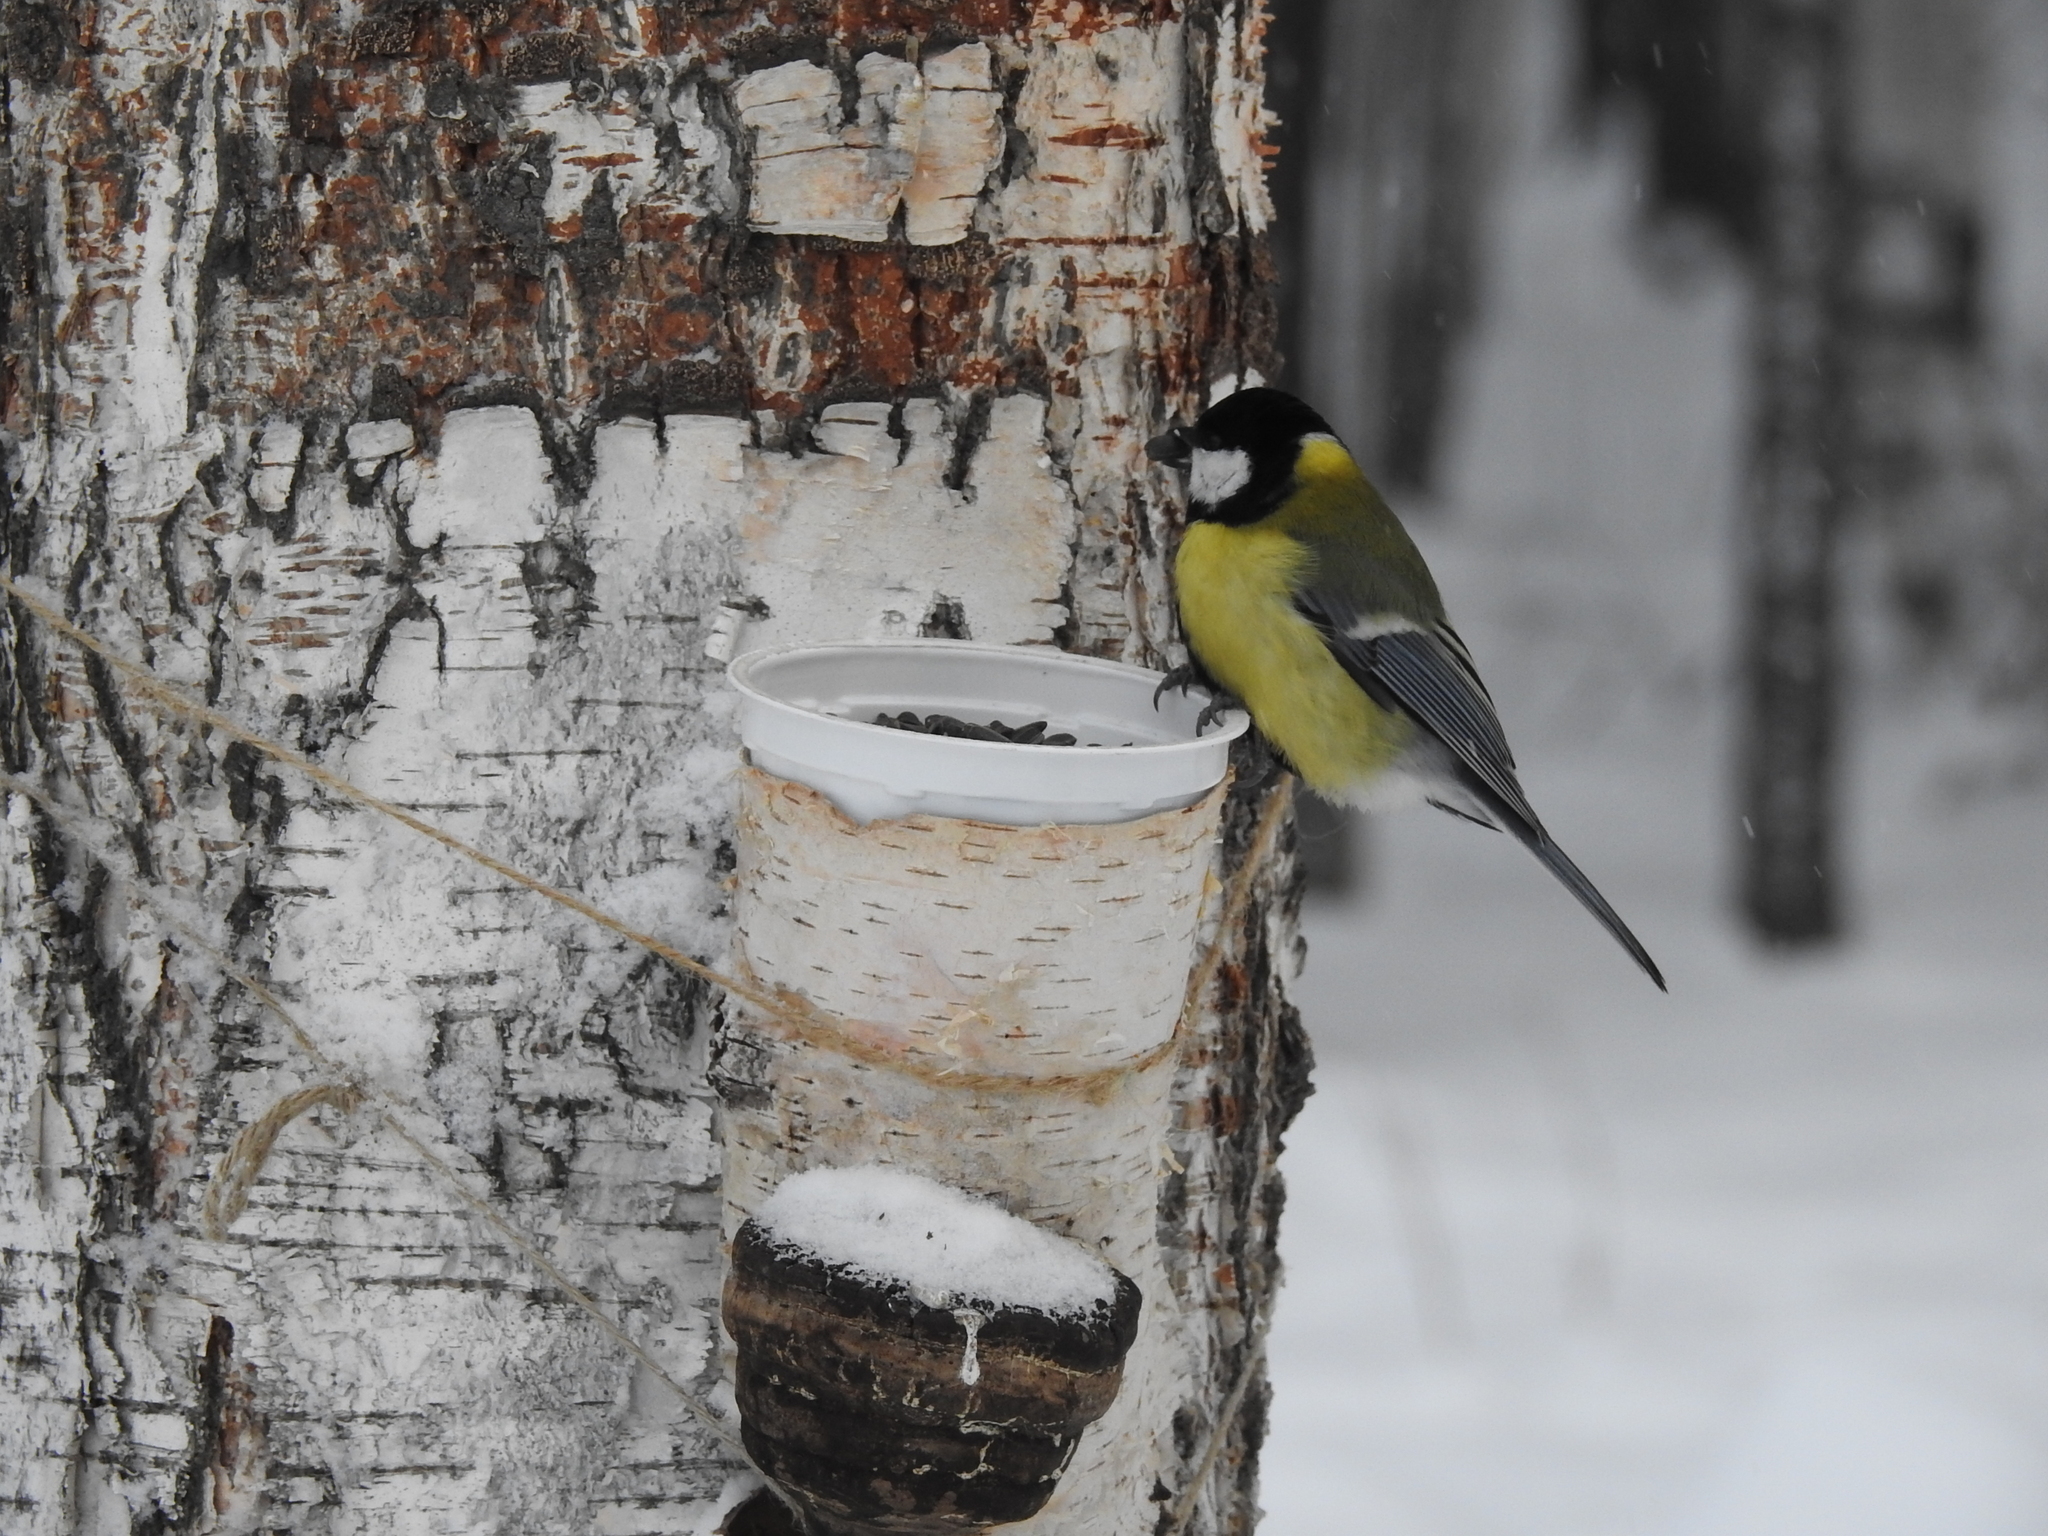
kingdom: Animalia
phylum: Chordata
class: Aves
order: Passeriformes
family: Paridae
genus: Parus
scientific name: Parus major
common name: Great tit
